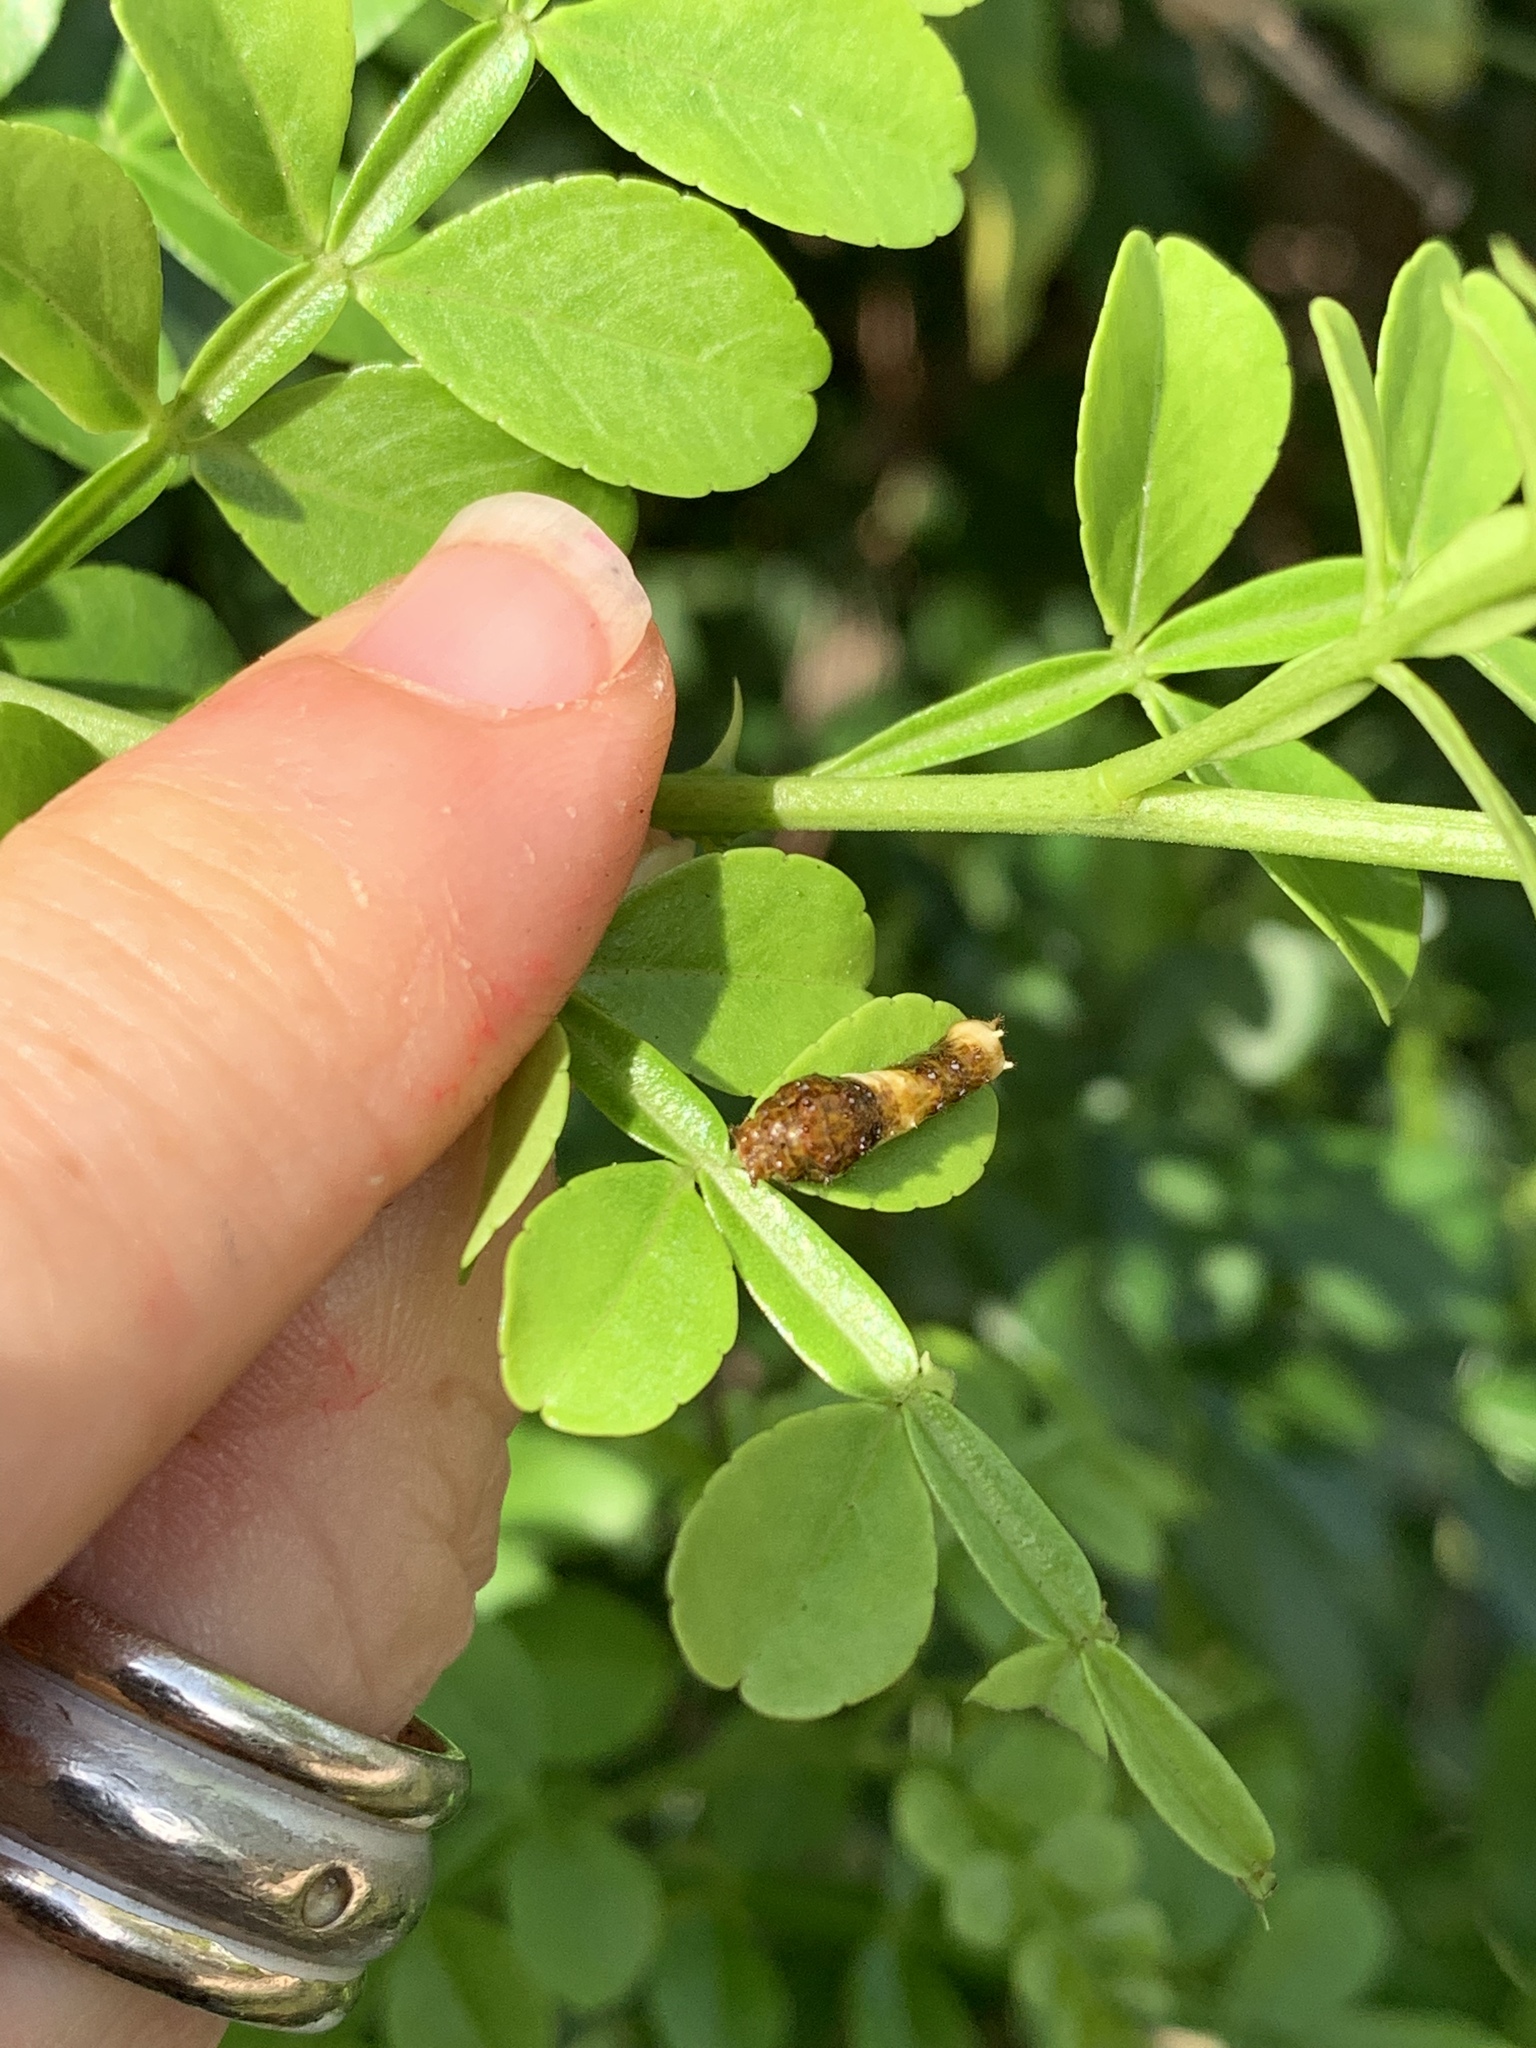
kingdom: Animalia
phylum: Arthropoda
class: Insecta
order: Lepidoptera
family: Papilionidae
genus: Papilio
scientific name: Papilio cresphontes
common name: Giant swallowtail
